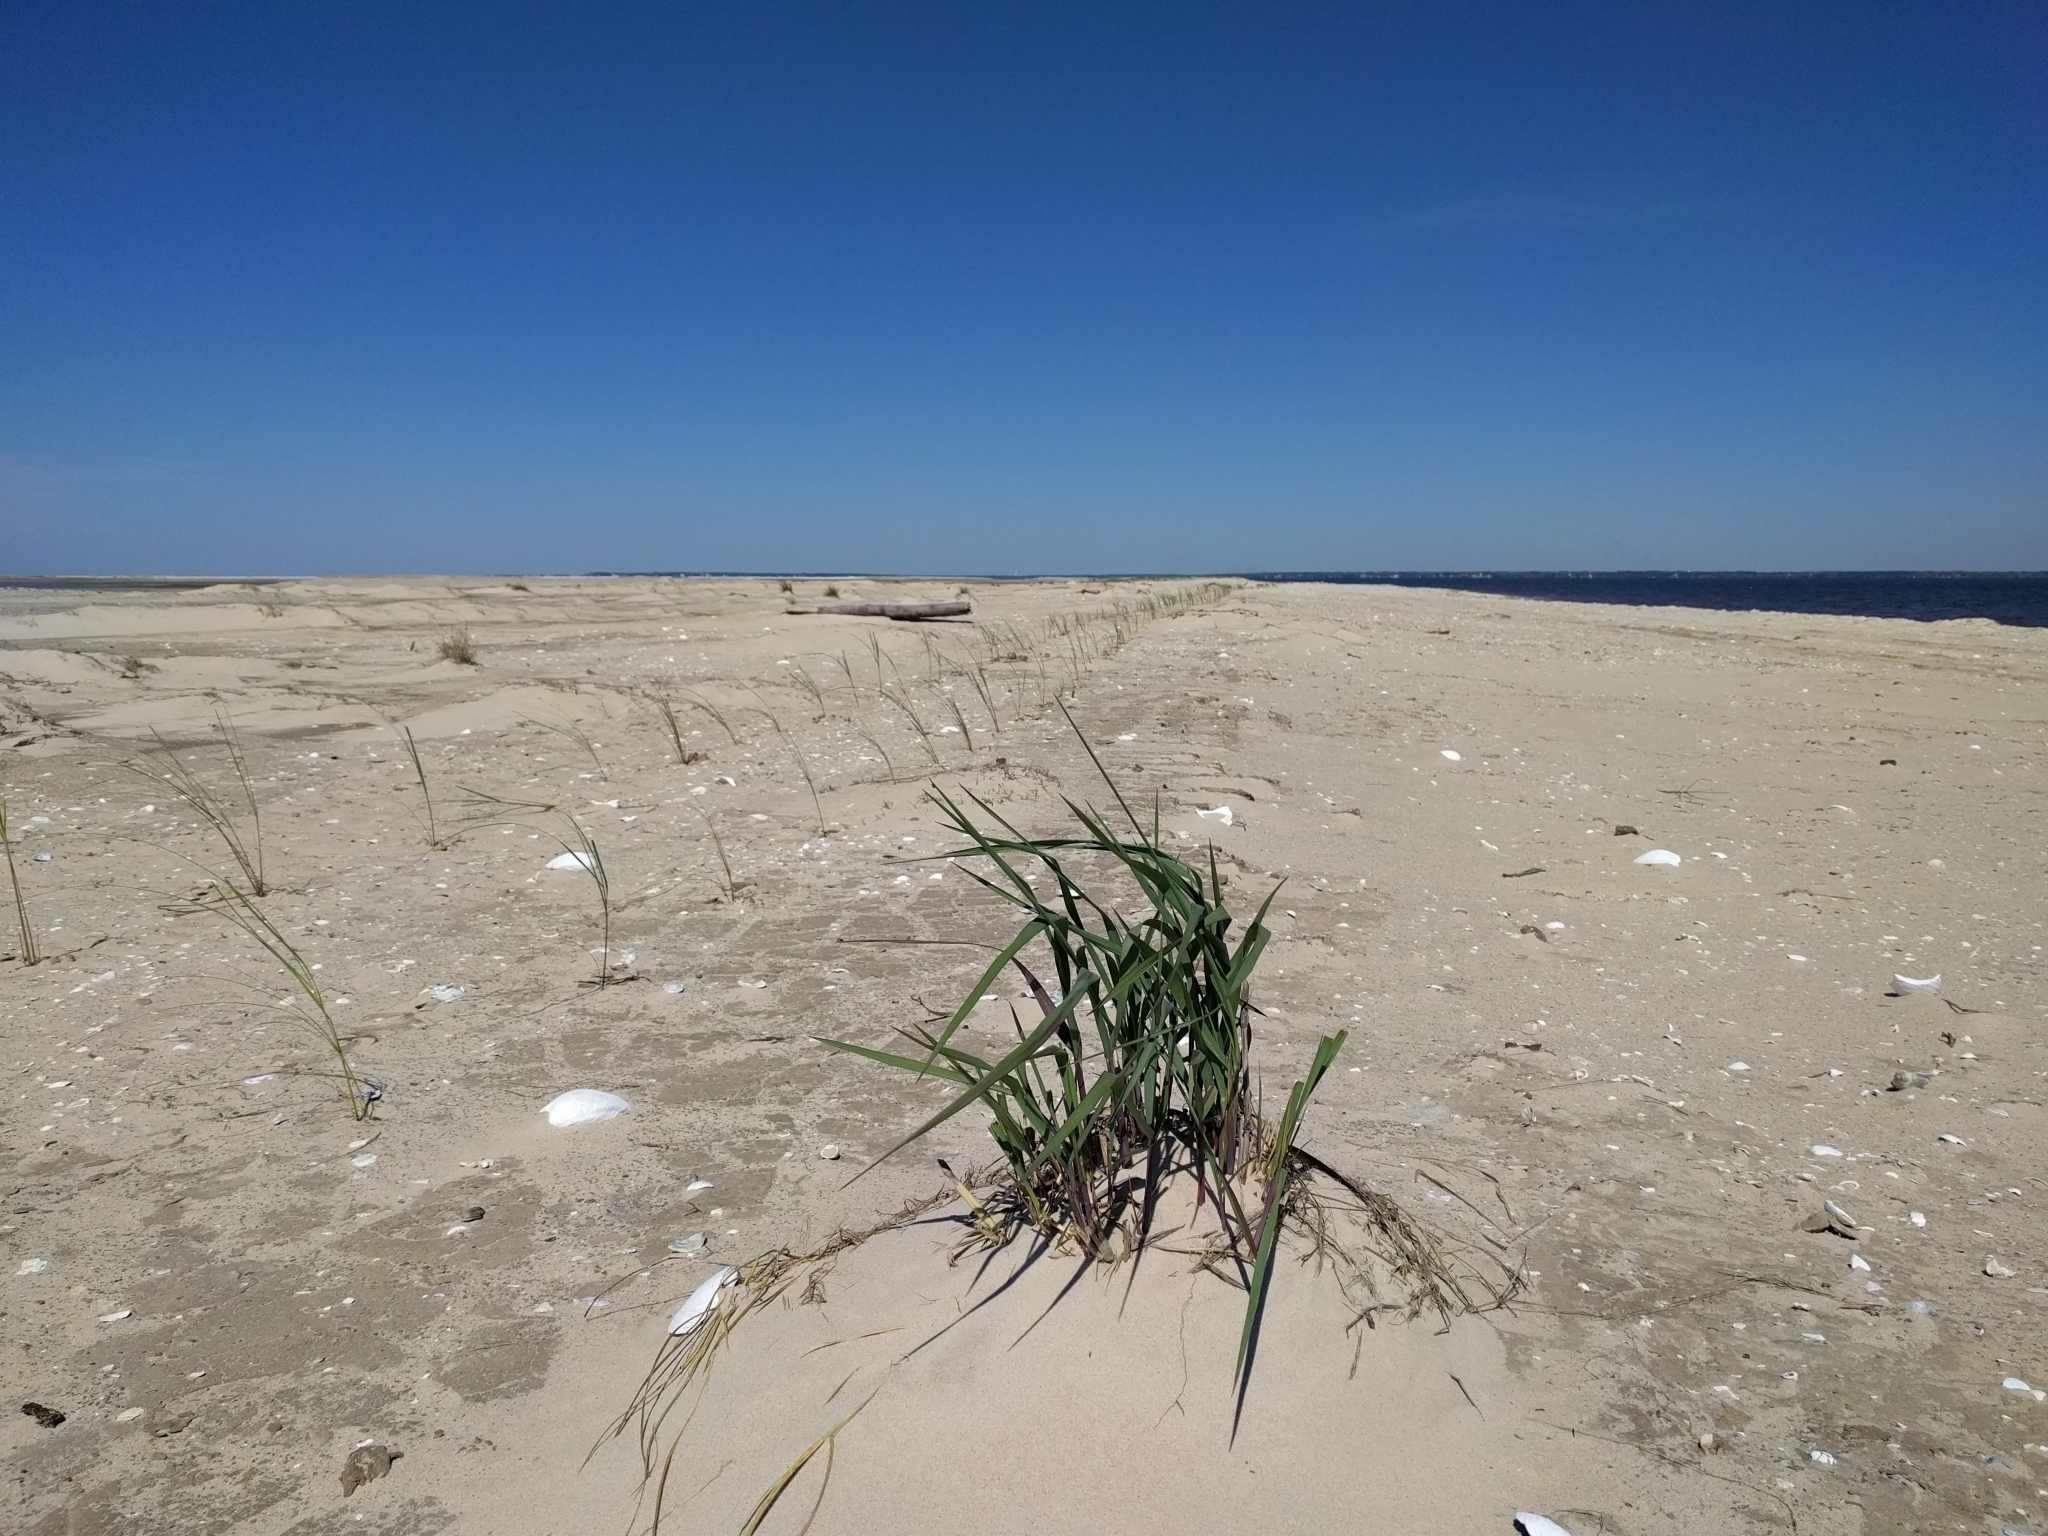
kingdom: Plantae
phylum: Tracheophyta
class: Liliopsida
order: Poales
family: Poaceae
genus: Panicum
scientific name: Panicum amarum
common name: Bitter panicum
